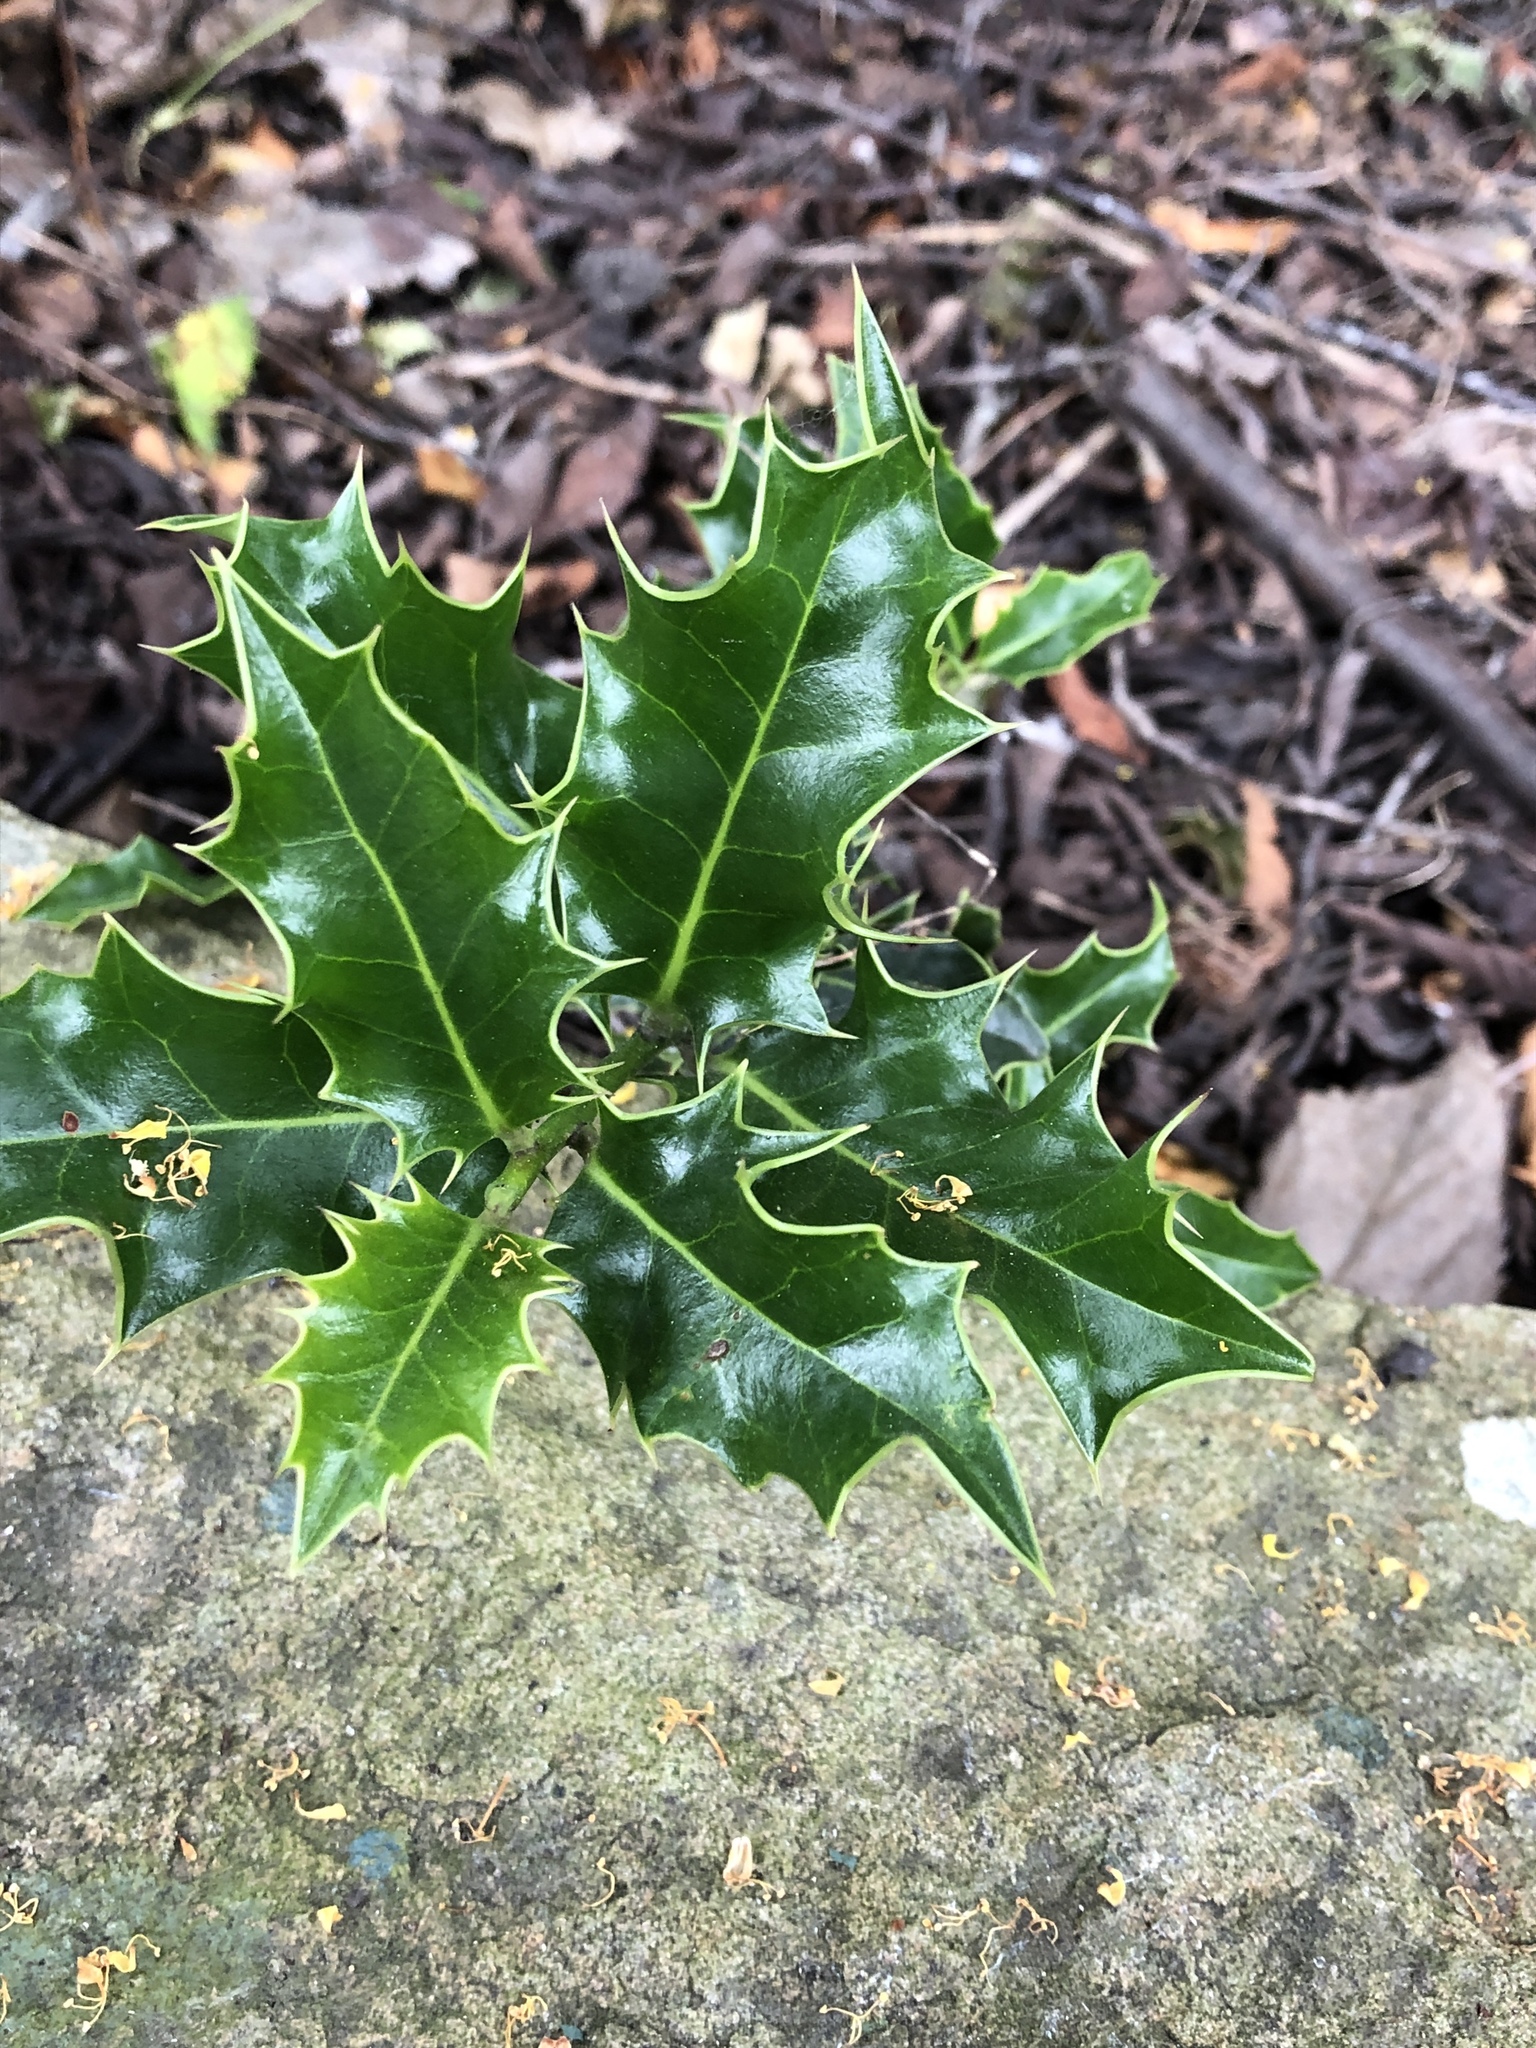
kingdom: Plantae
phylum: Tracheophyta
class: Magnoliopsida
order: Aquifoliales
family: Aquifoliaceae
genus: Ilex
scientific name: Ilex aquifolium
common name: English holly
